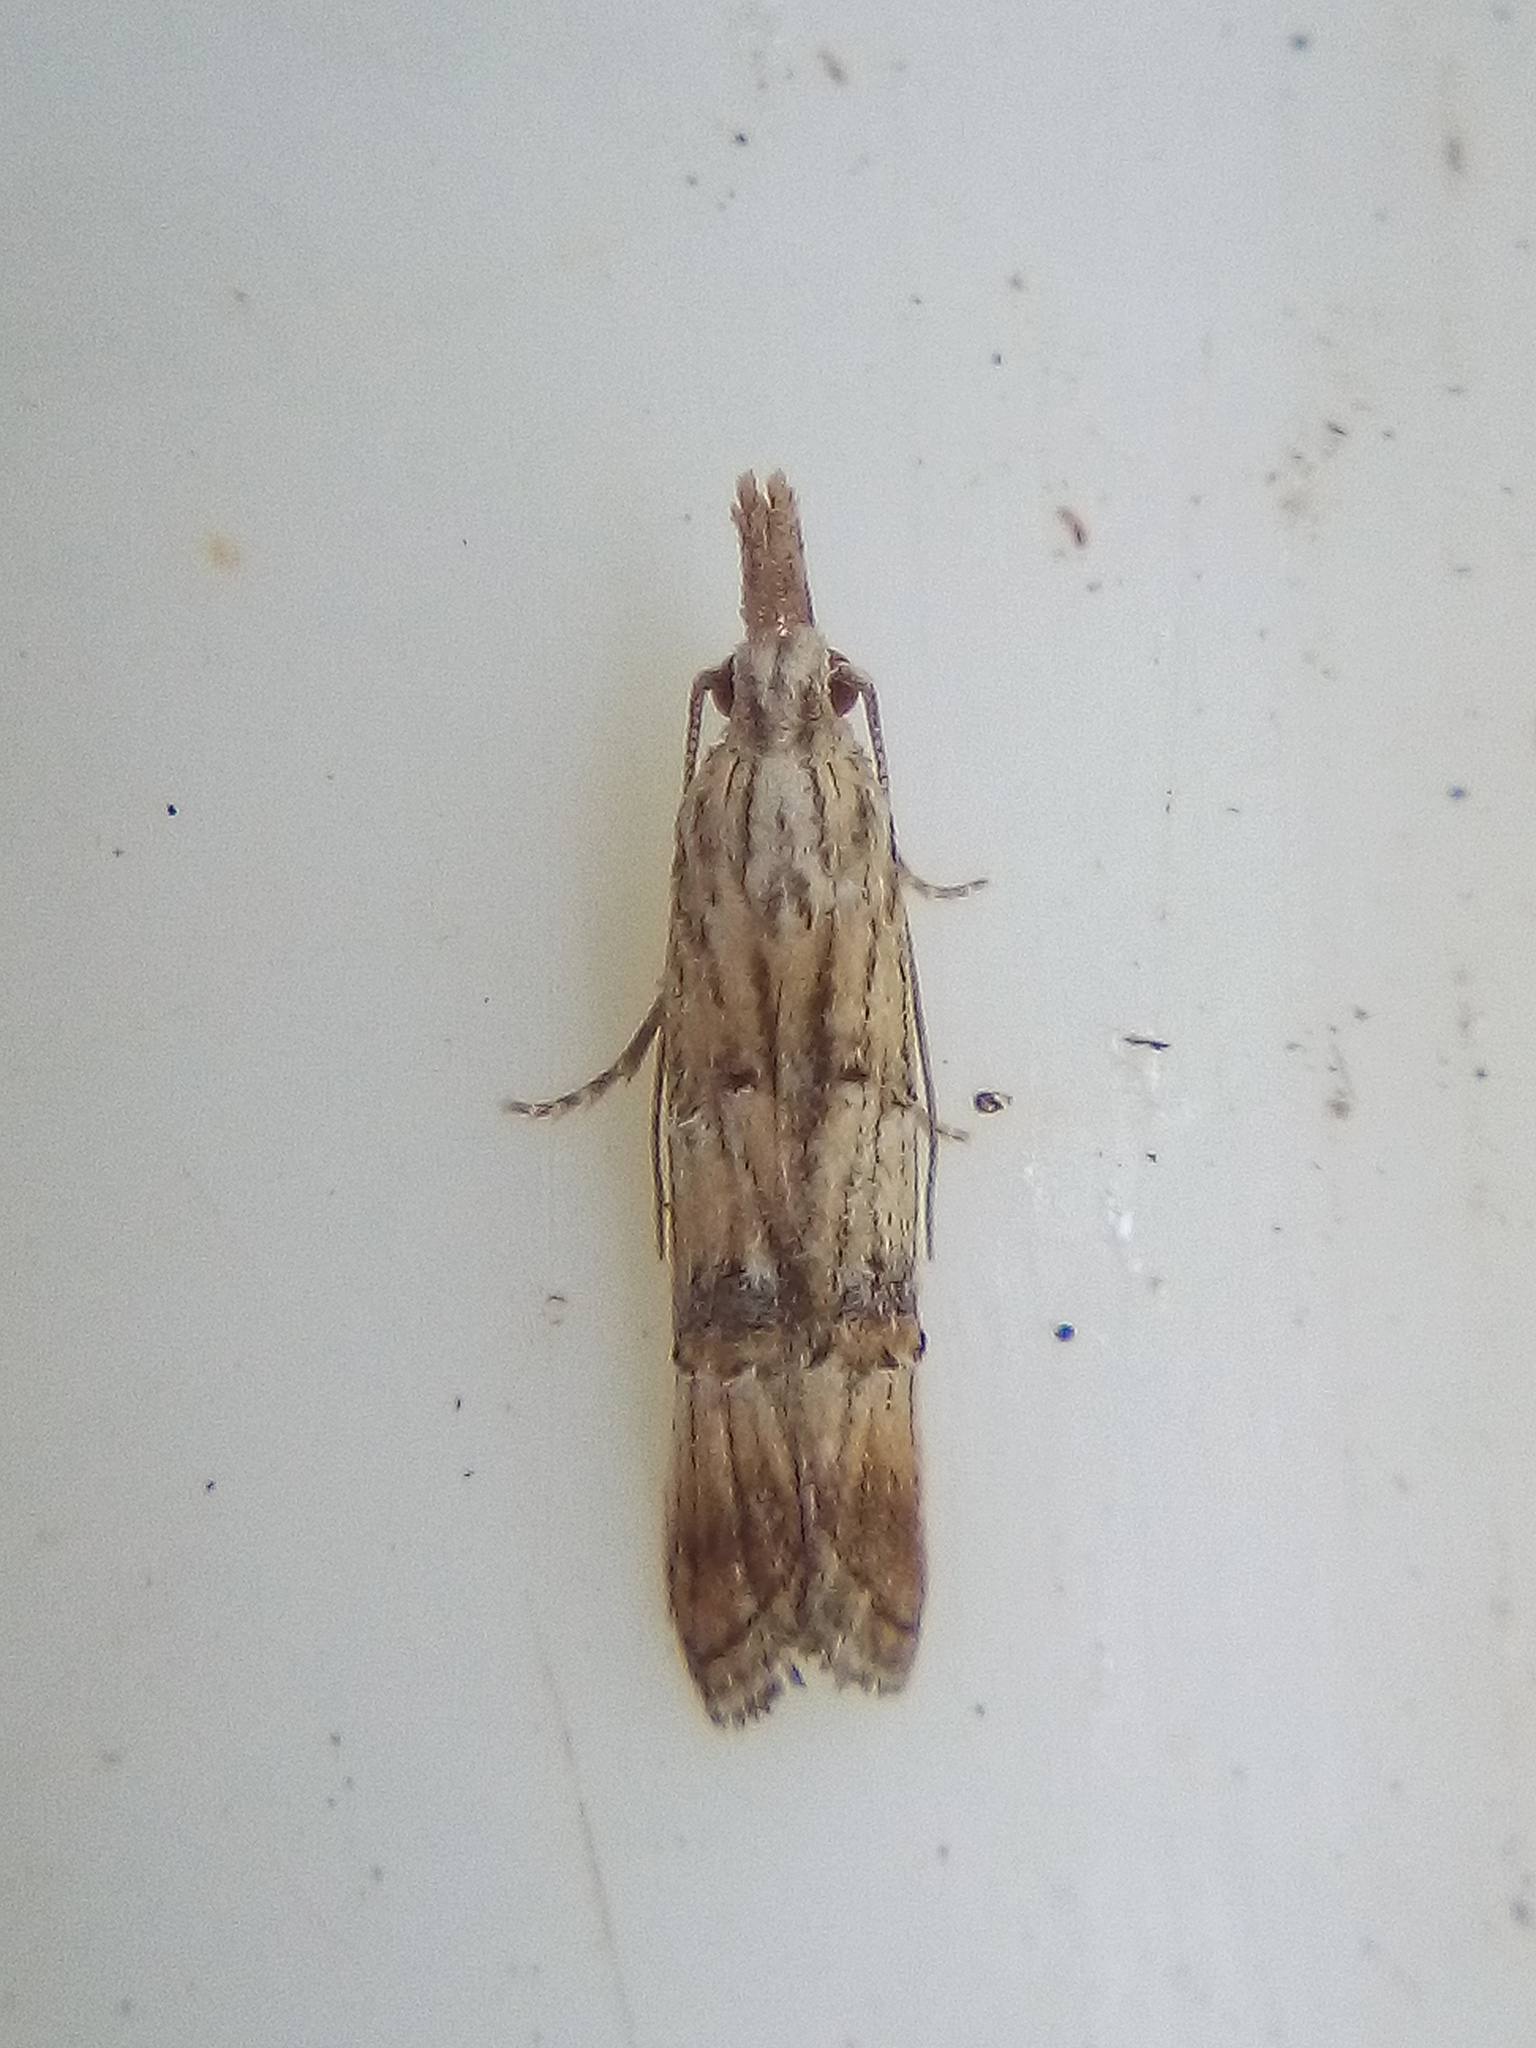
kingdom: Animalia
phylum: Arthropoda
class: Insecta
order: Lepidoptera
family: Carposinidae
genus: Carposina
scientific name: Carposina neurophorella
